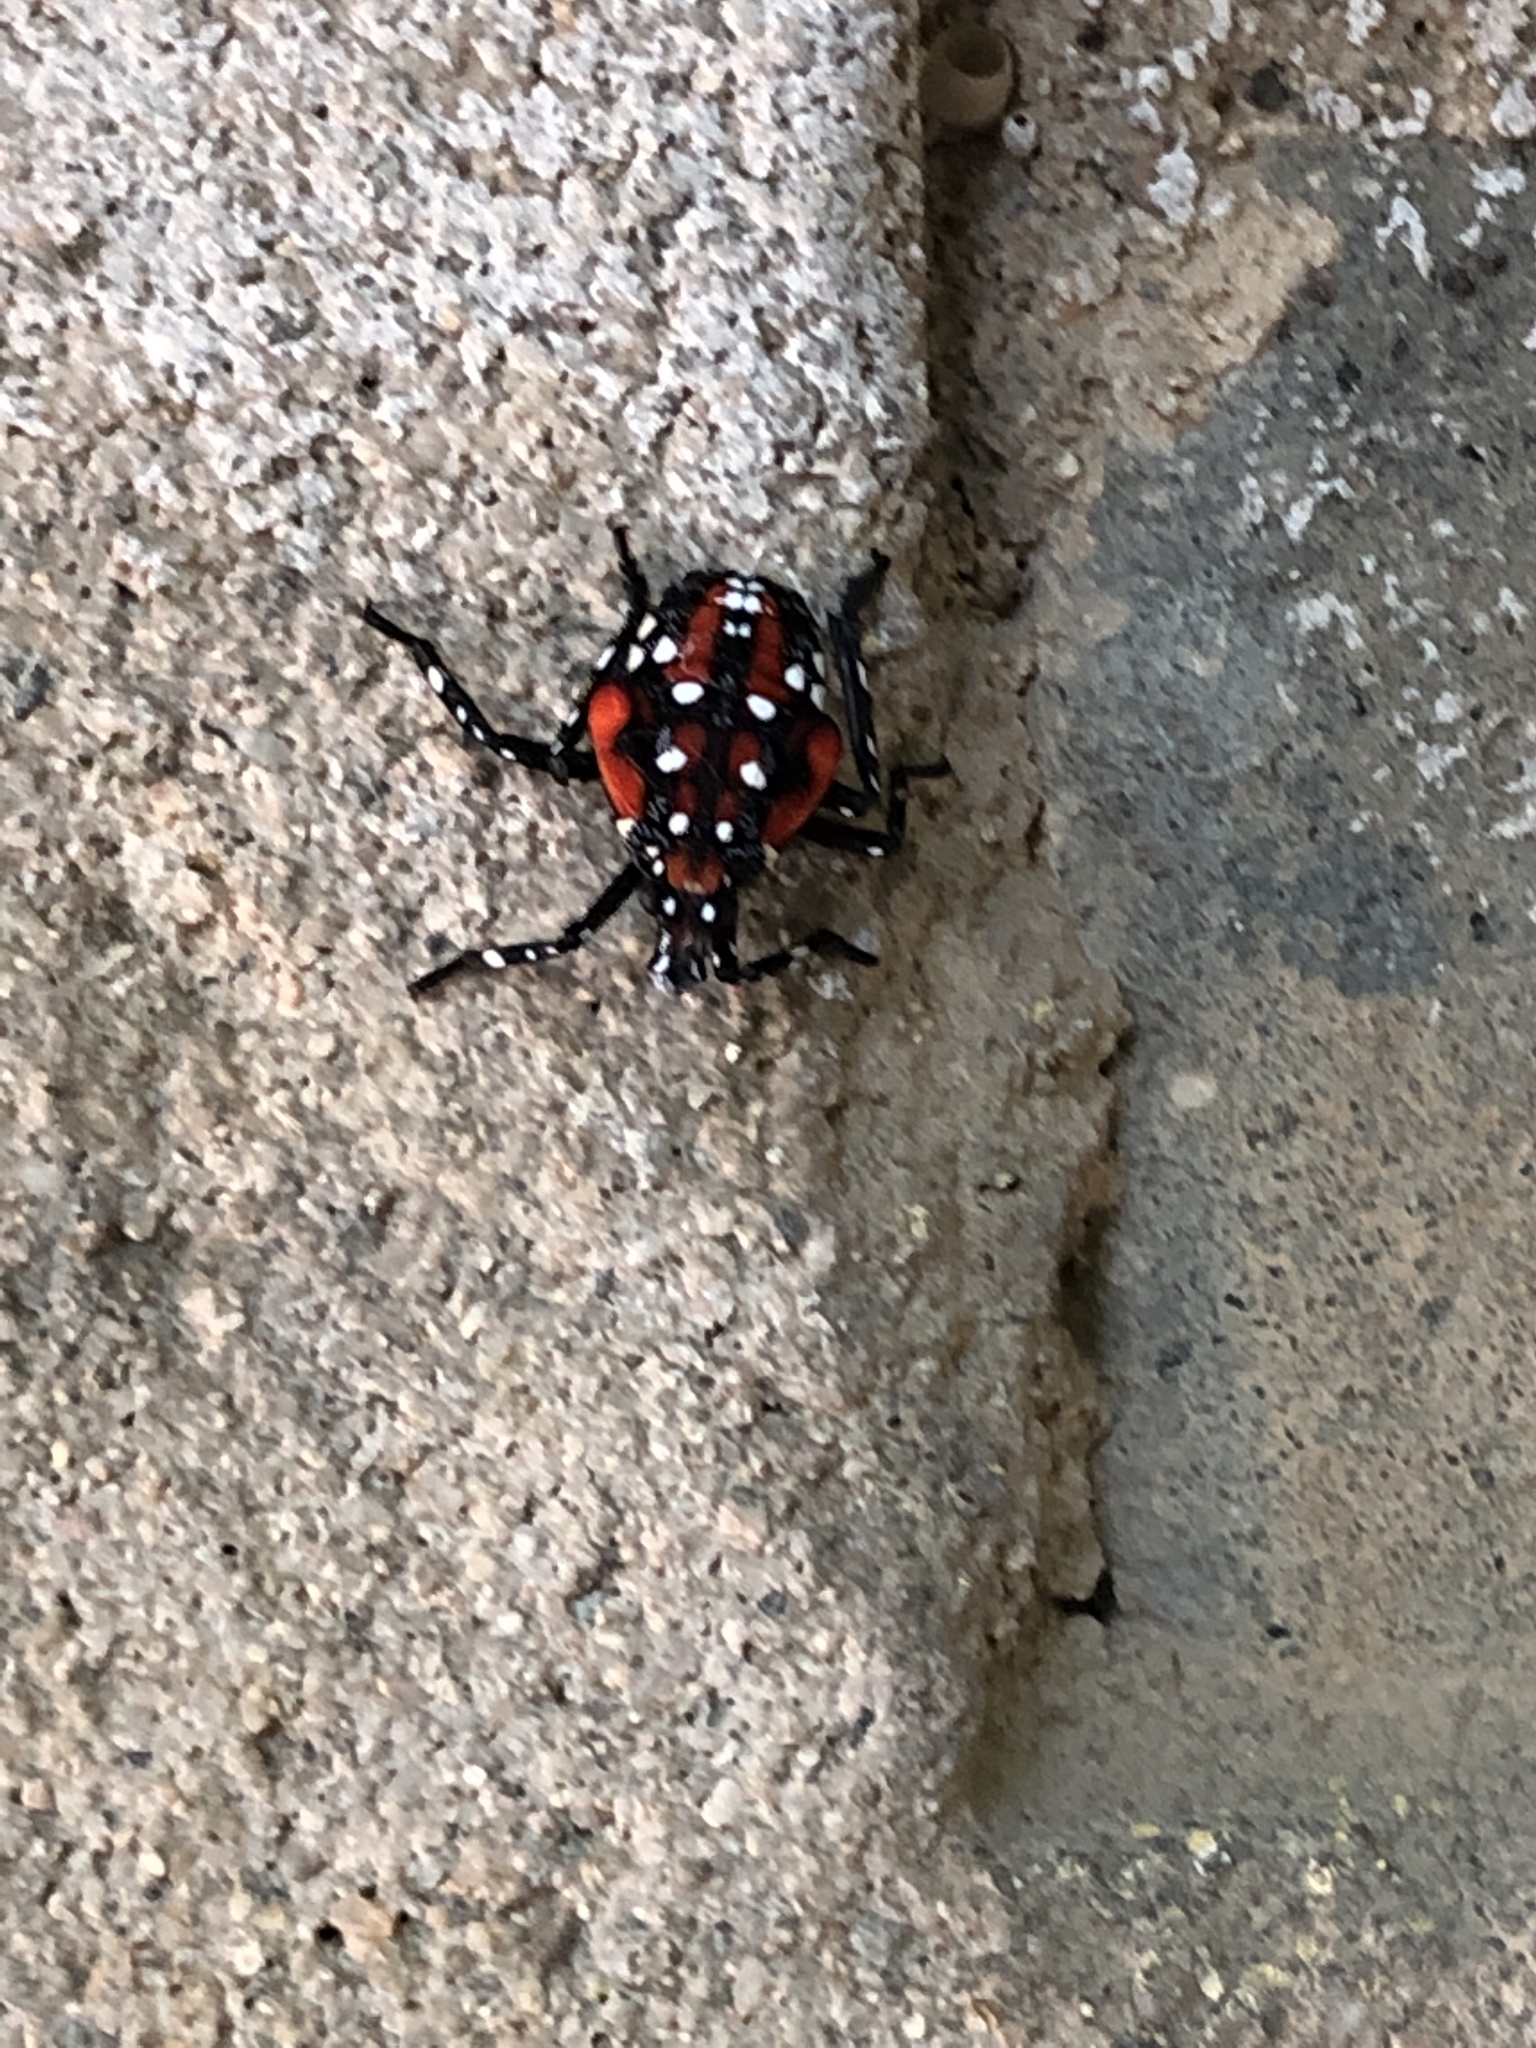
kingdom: Animalia
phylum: Arthropoda
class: Insecta
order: Hemiptera
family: Fulgoridae
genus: Lycorma
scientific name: Lycorma delicatula
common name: Spotted lanternfly
